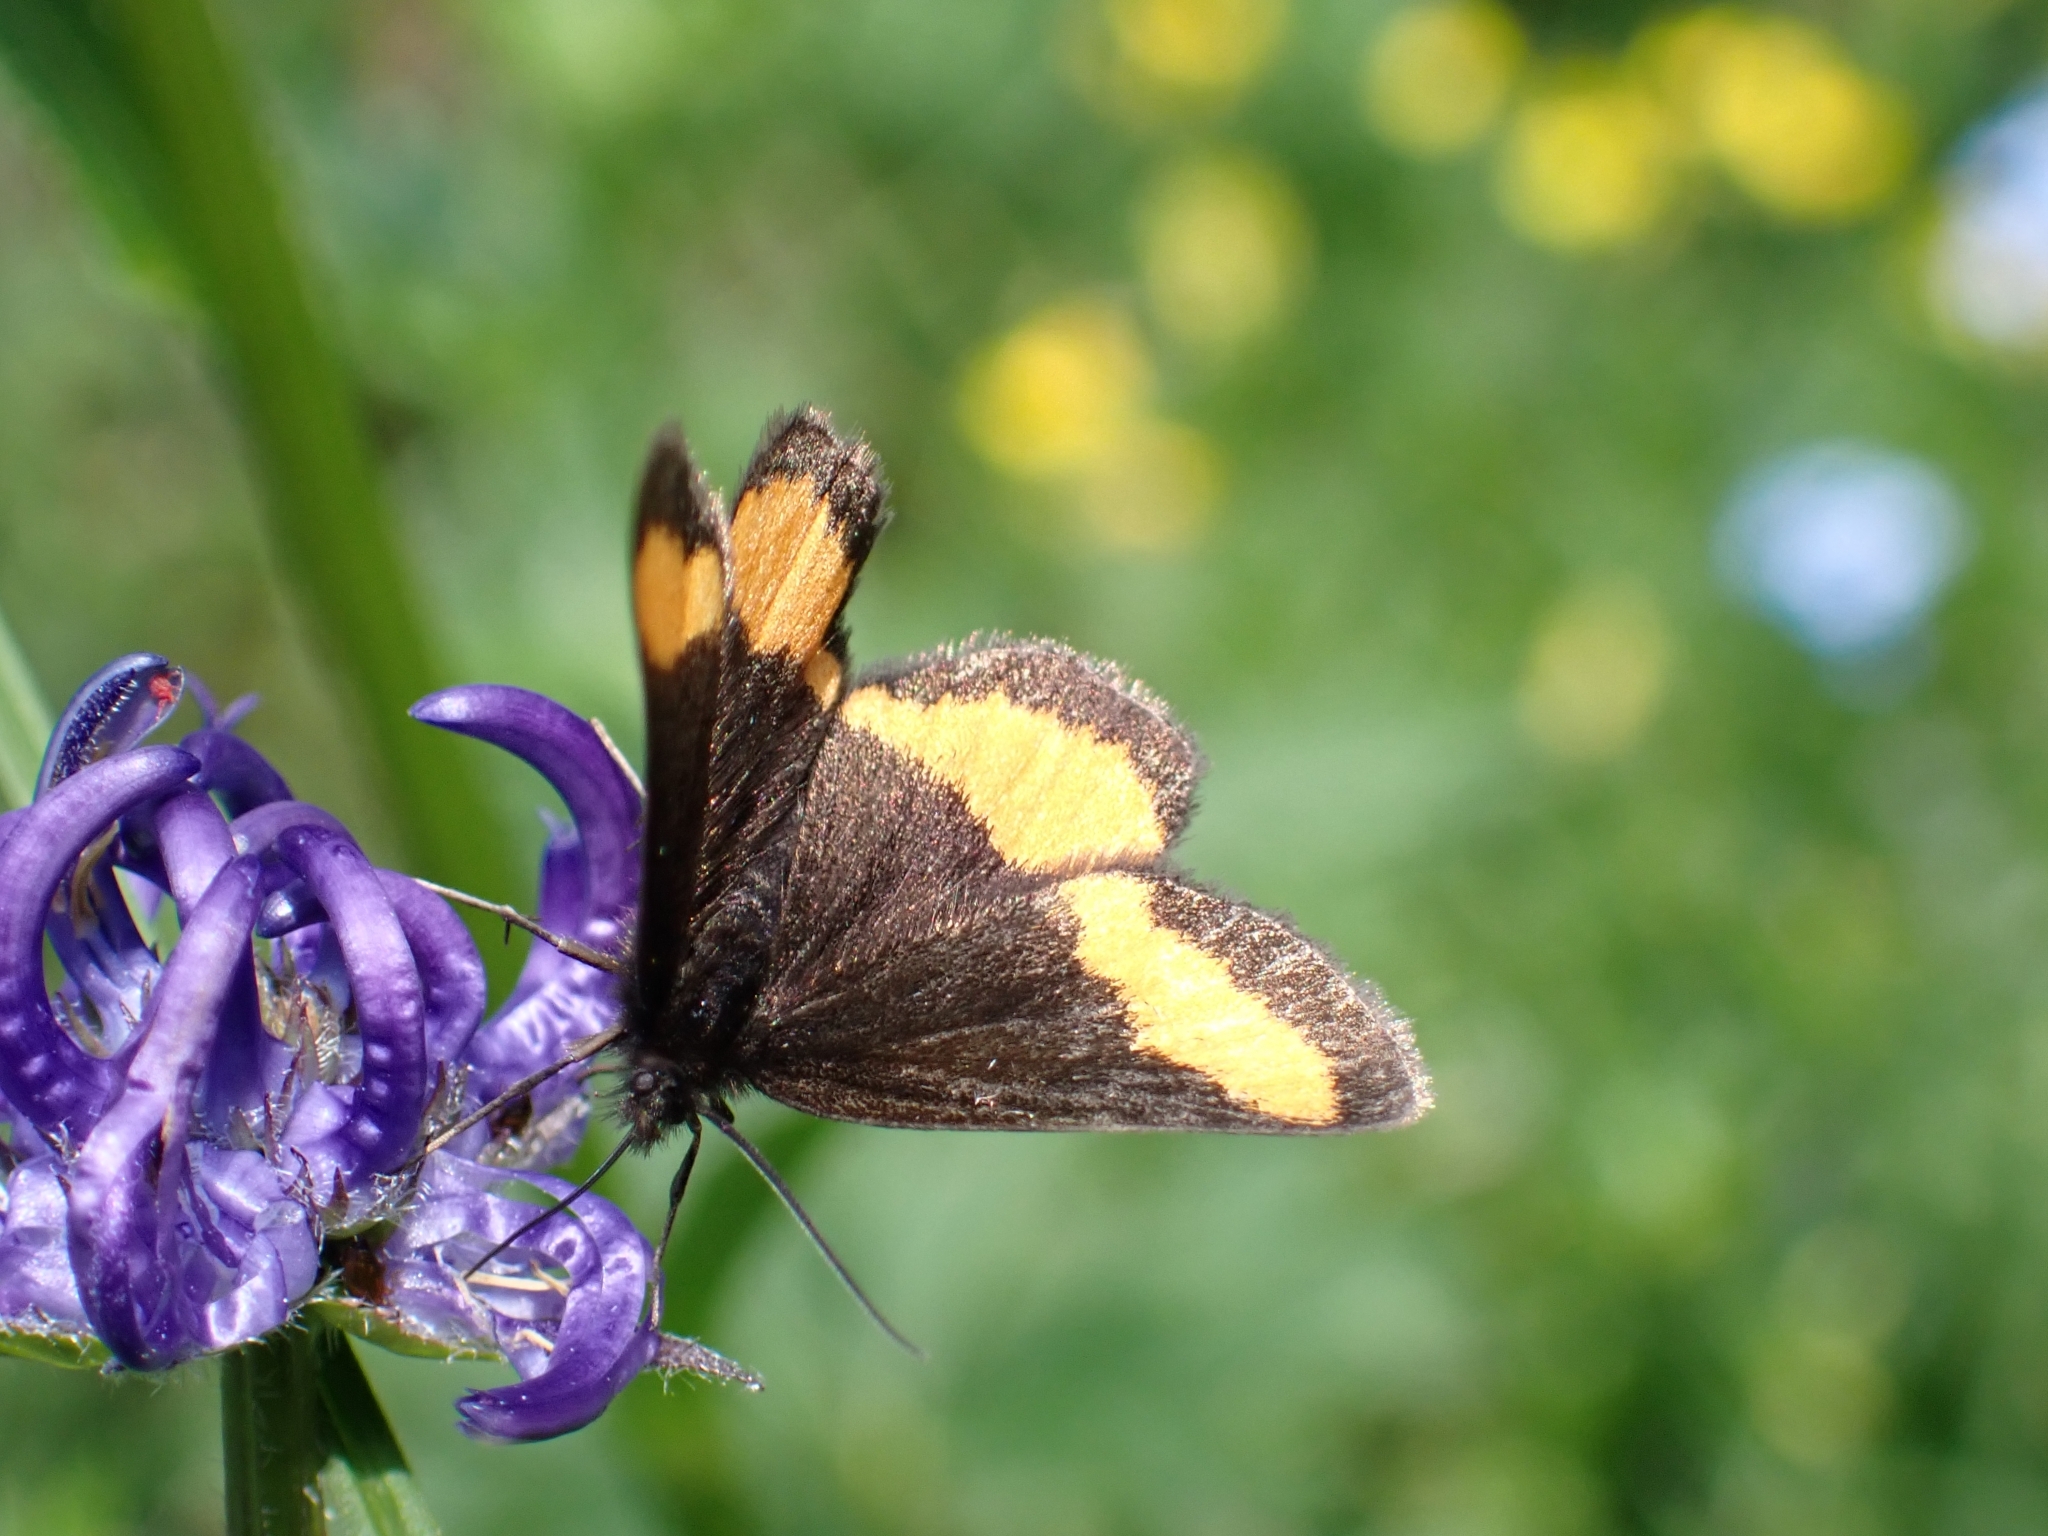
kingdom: Animalia
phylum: Arthropoda
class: Insecta
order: Lepidoptera
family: Geometridae
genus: Psodos
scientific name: Psodos quadrifaria
